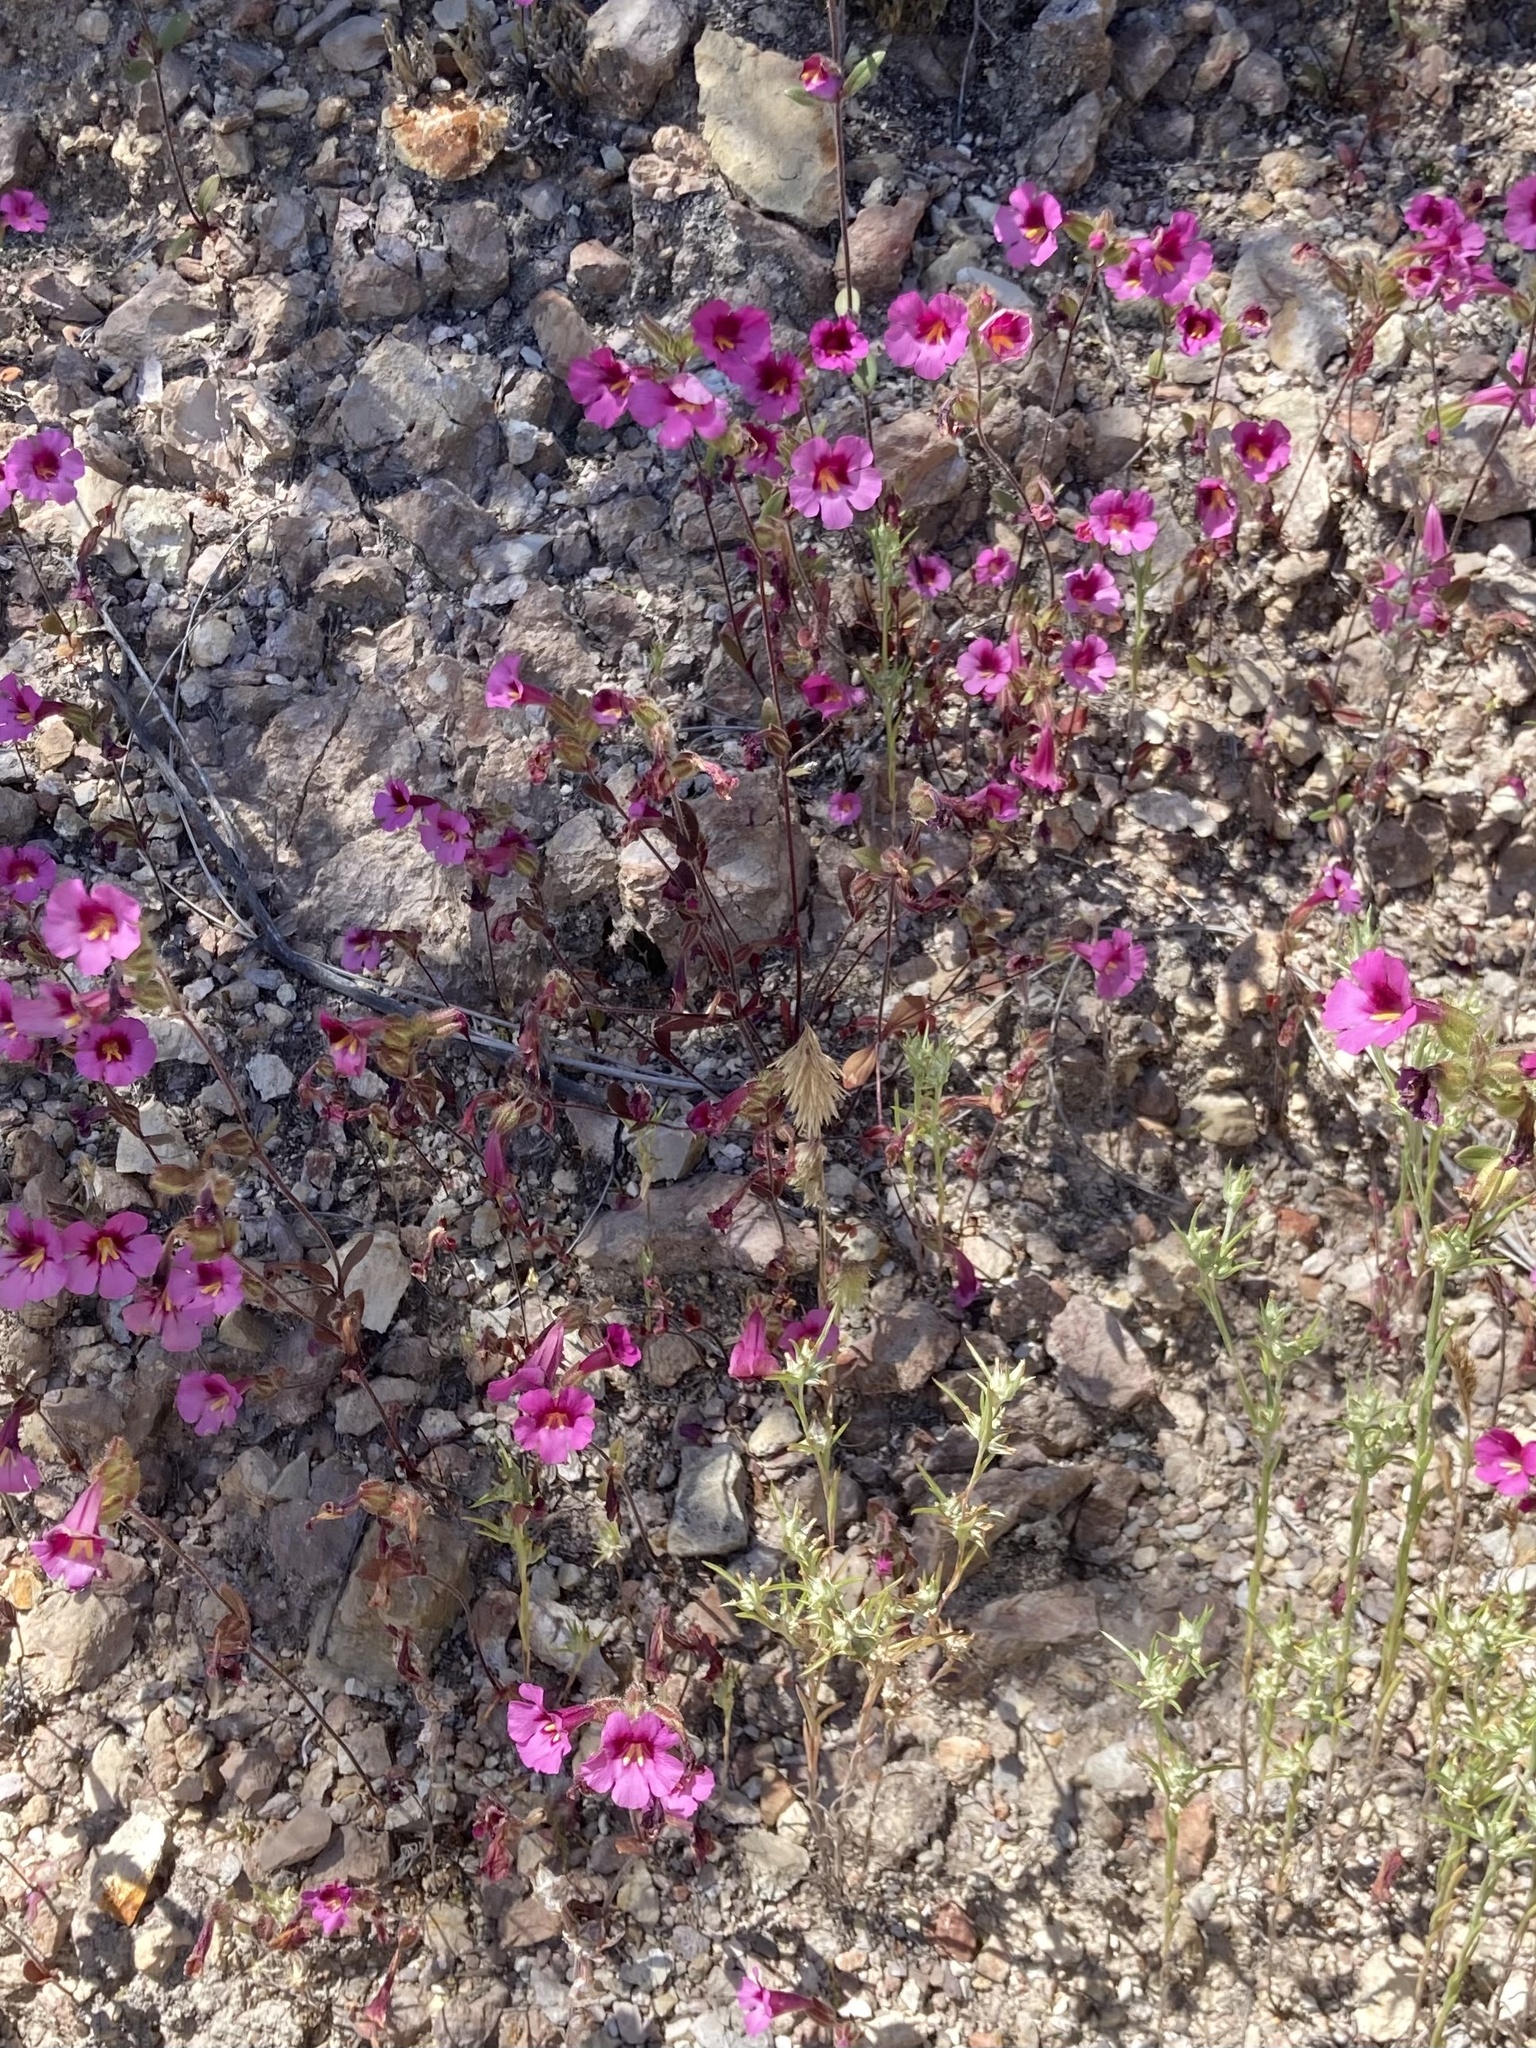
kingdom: Plantae
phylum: Tracheophyta
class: Magnoliopsida
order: Lamiales
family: Phrymaceae
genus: Diplacus
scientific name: Diplacus fremontii
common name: Fremont's monkey-flower
